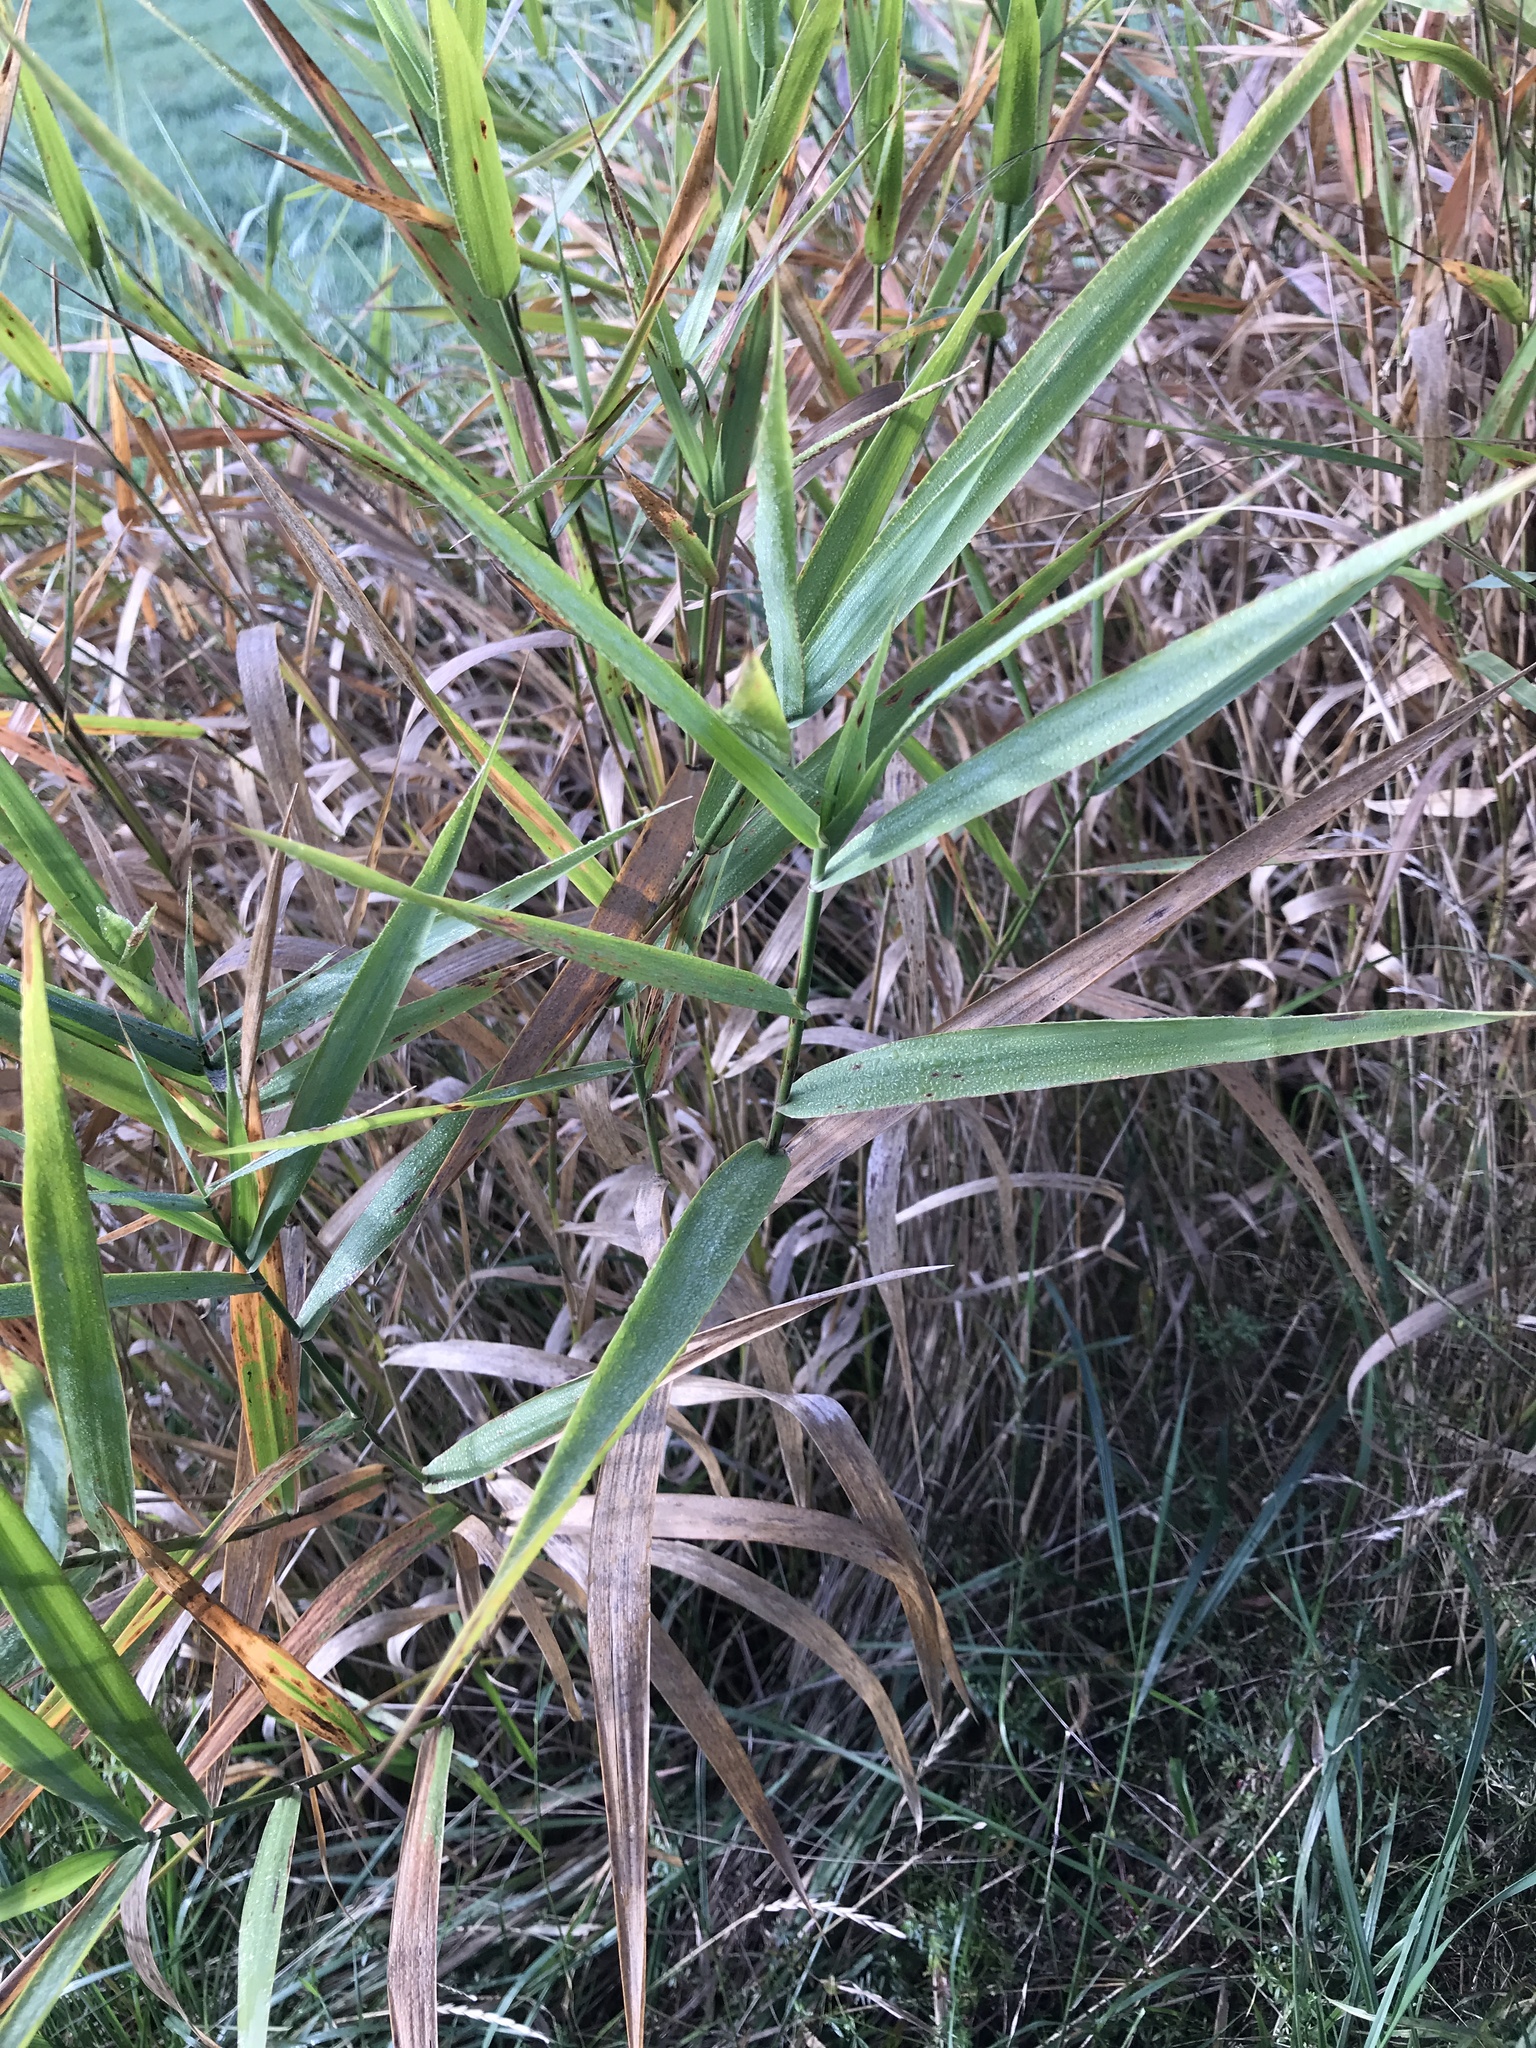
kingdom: Plantae
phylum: Tracheophyta
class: Liliopsida
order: Poales
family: Poaceae
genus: Phalaris
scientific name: Phalaris arundinacea
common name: Reed canary-grass
